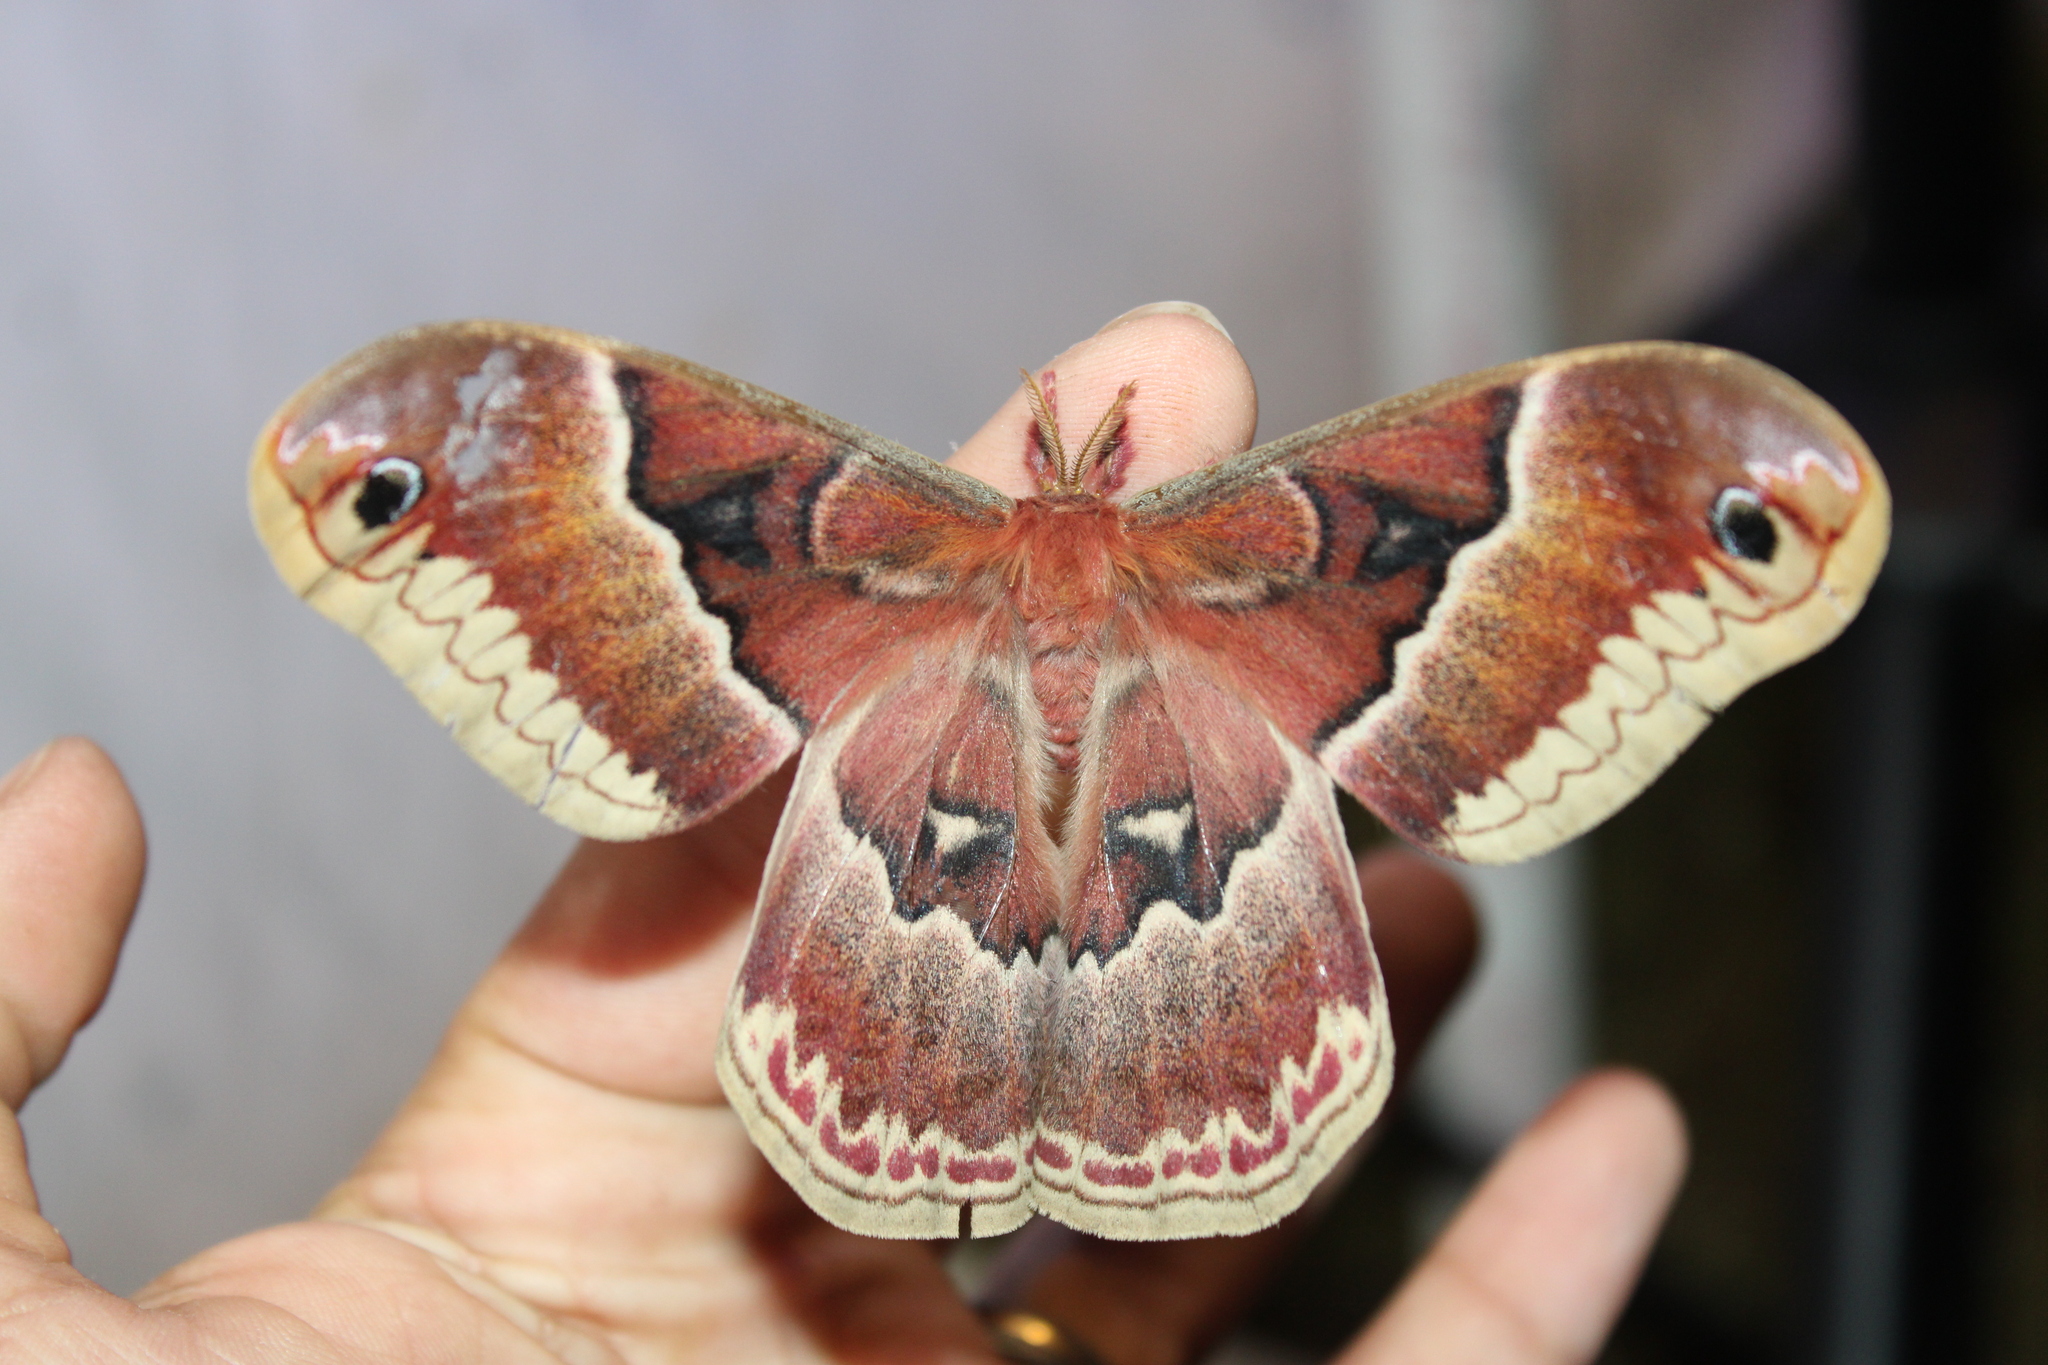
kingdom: Animalia
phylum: Arthropoda
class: Insecta
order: Lepidoptera
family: Saturniidae
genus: Callosamia
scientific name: Callosamia promethea
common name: Promethea silkmoth
